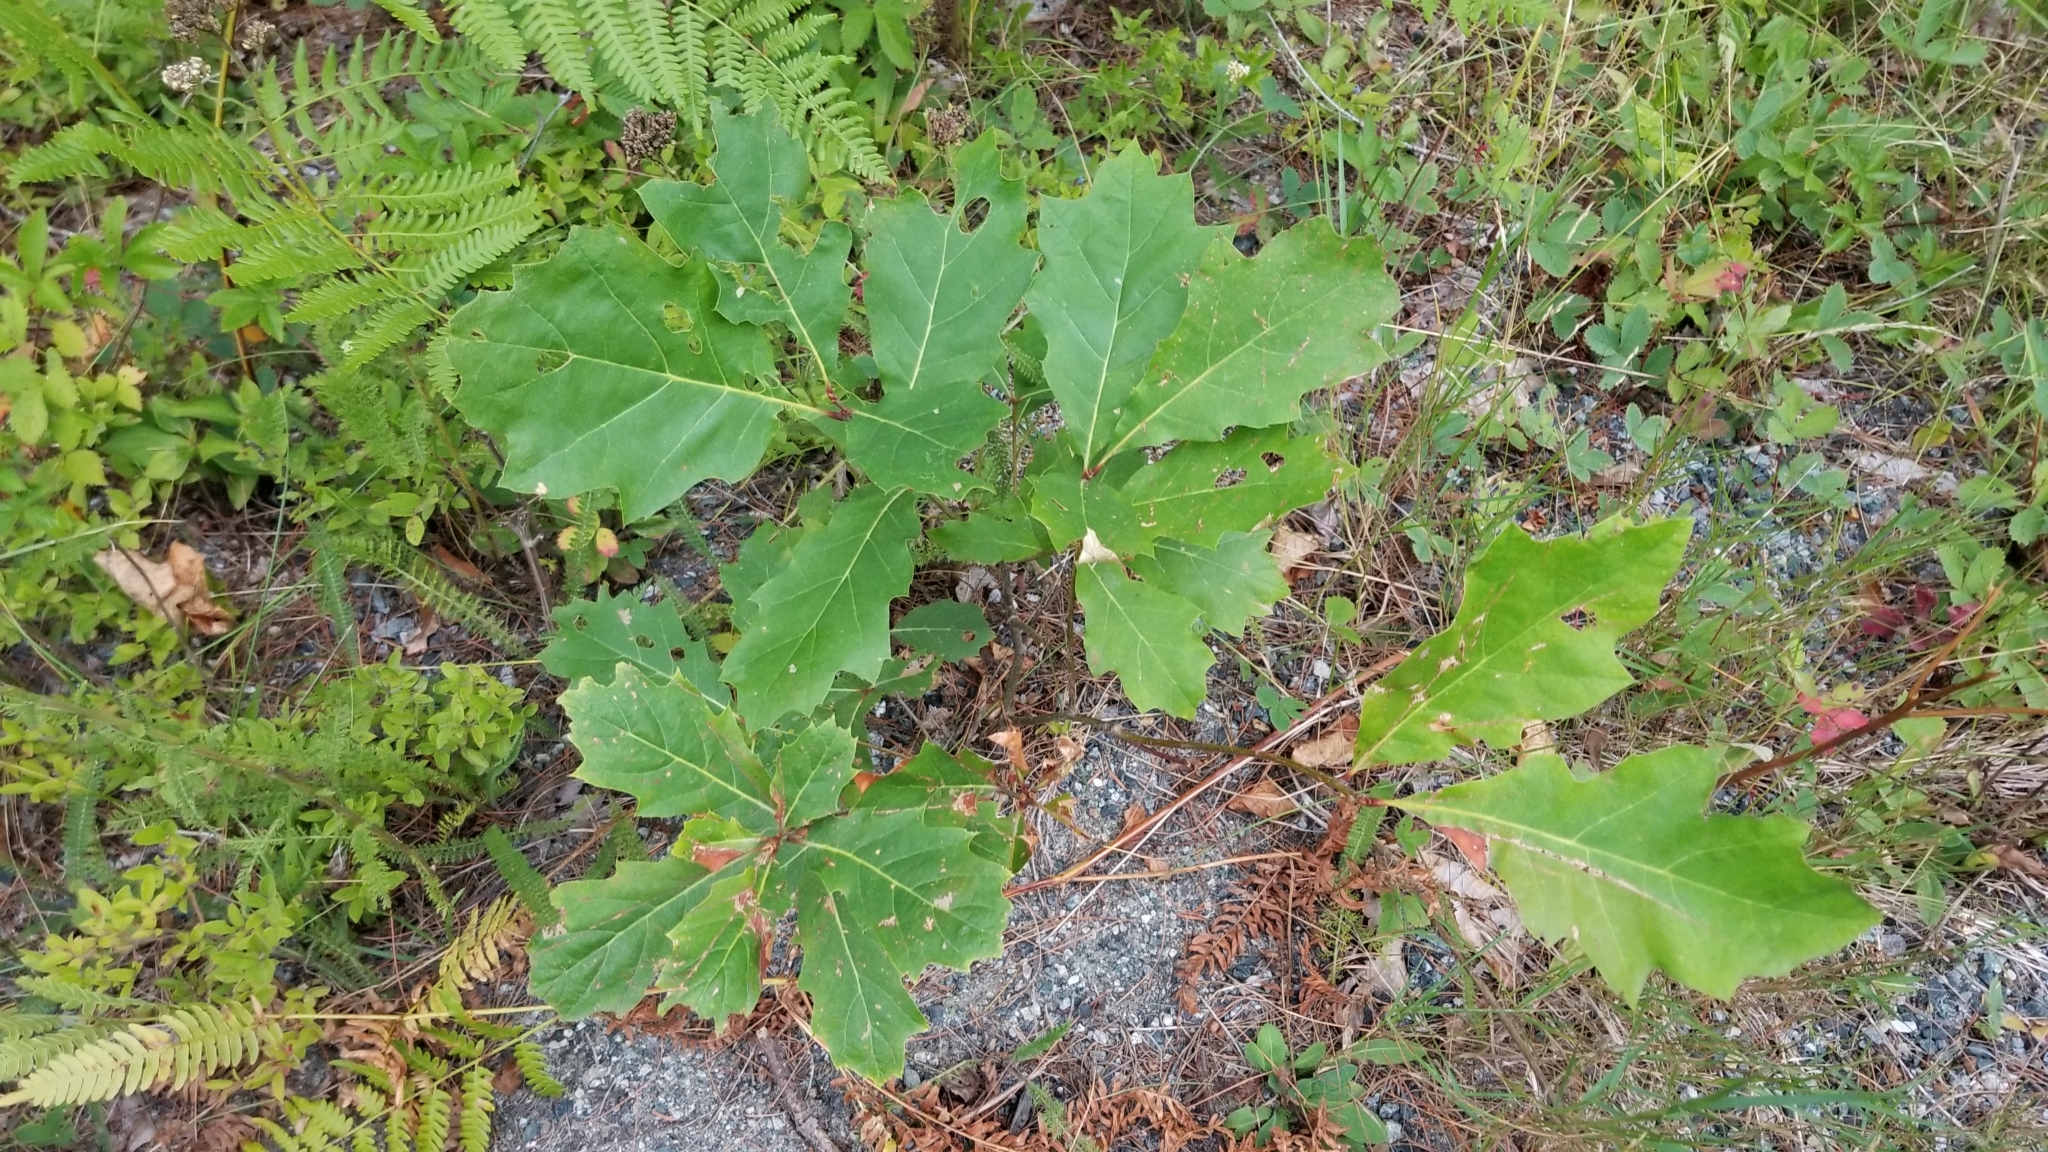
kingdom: Plantae
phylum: Tracheophyta
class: Magnoliopsida
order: Fagales
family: Fagaceae
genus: Quercus
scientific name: Quercus rubra
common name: Red oak
